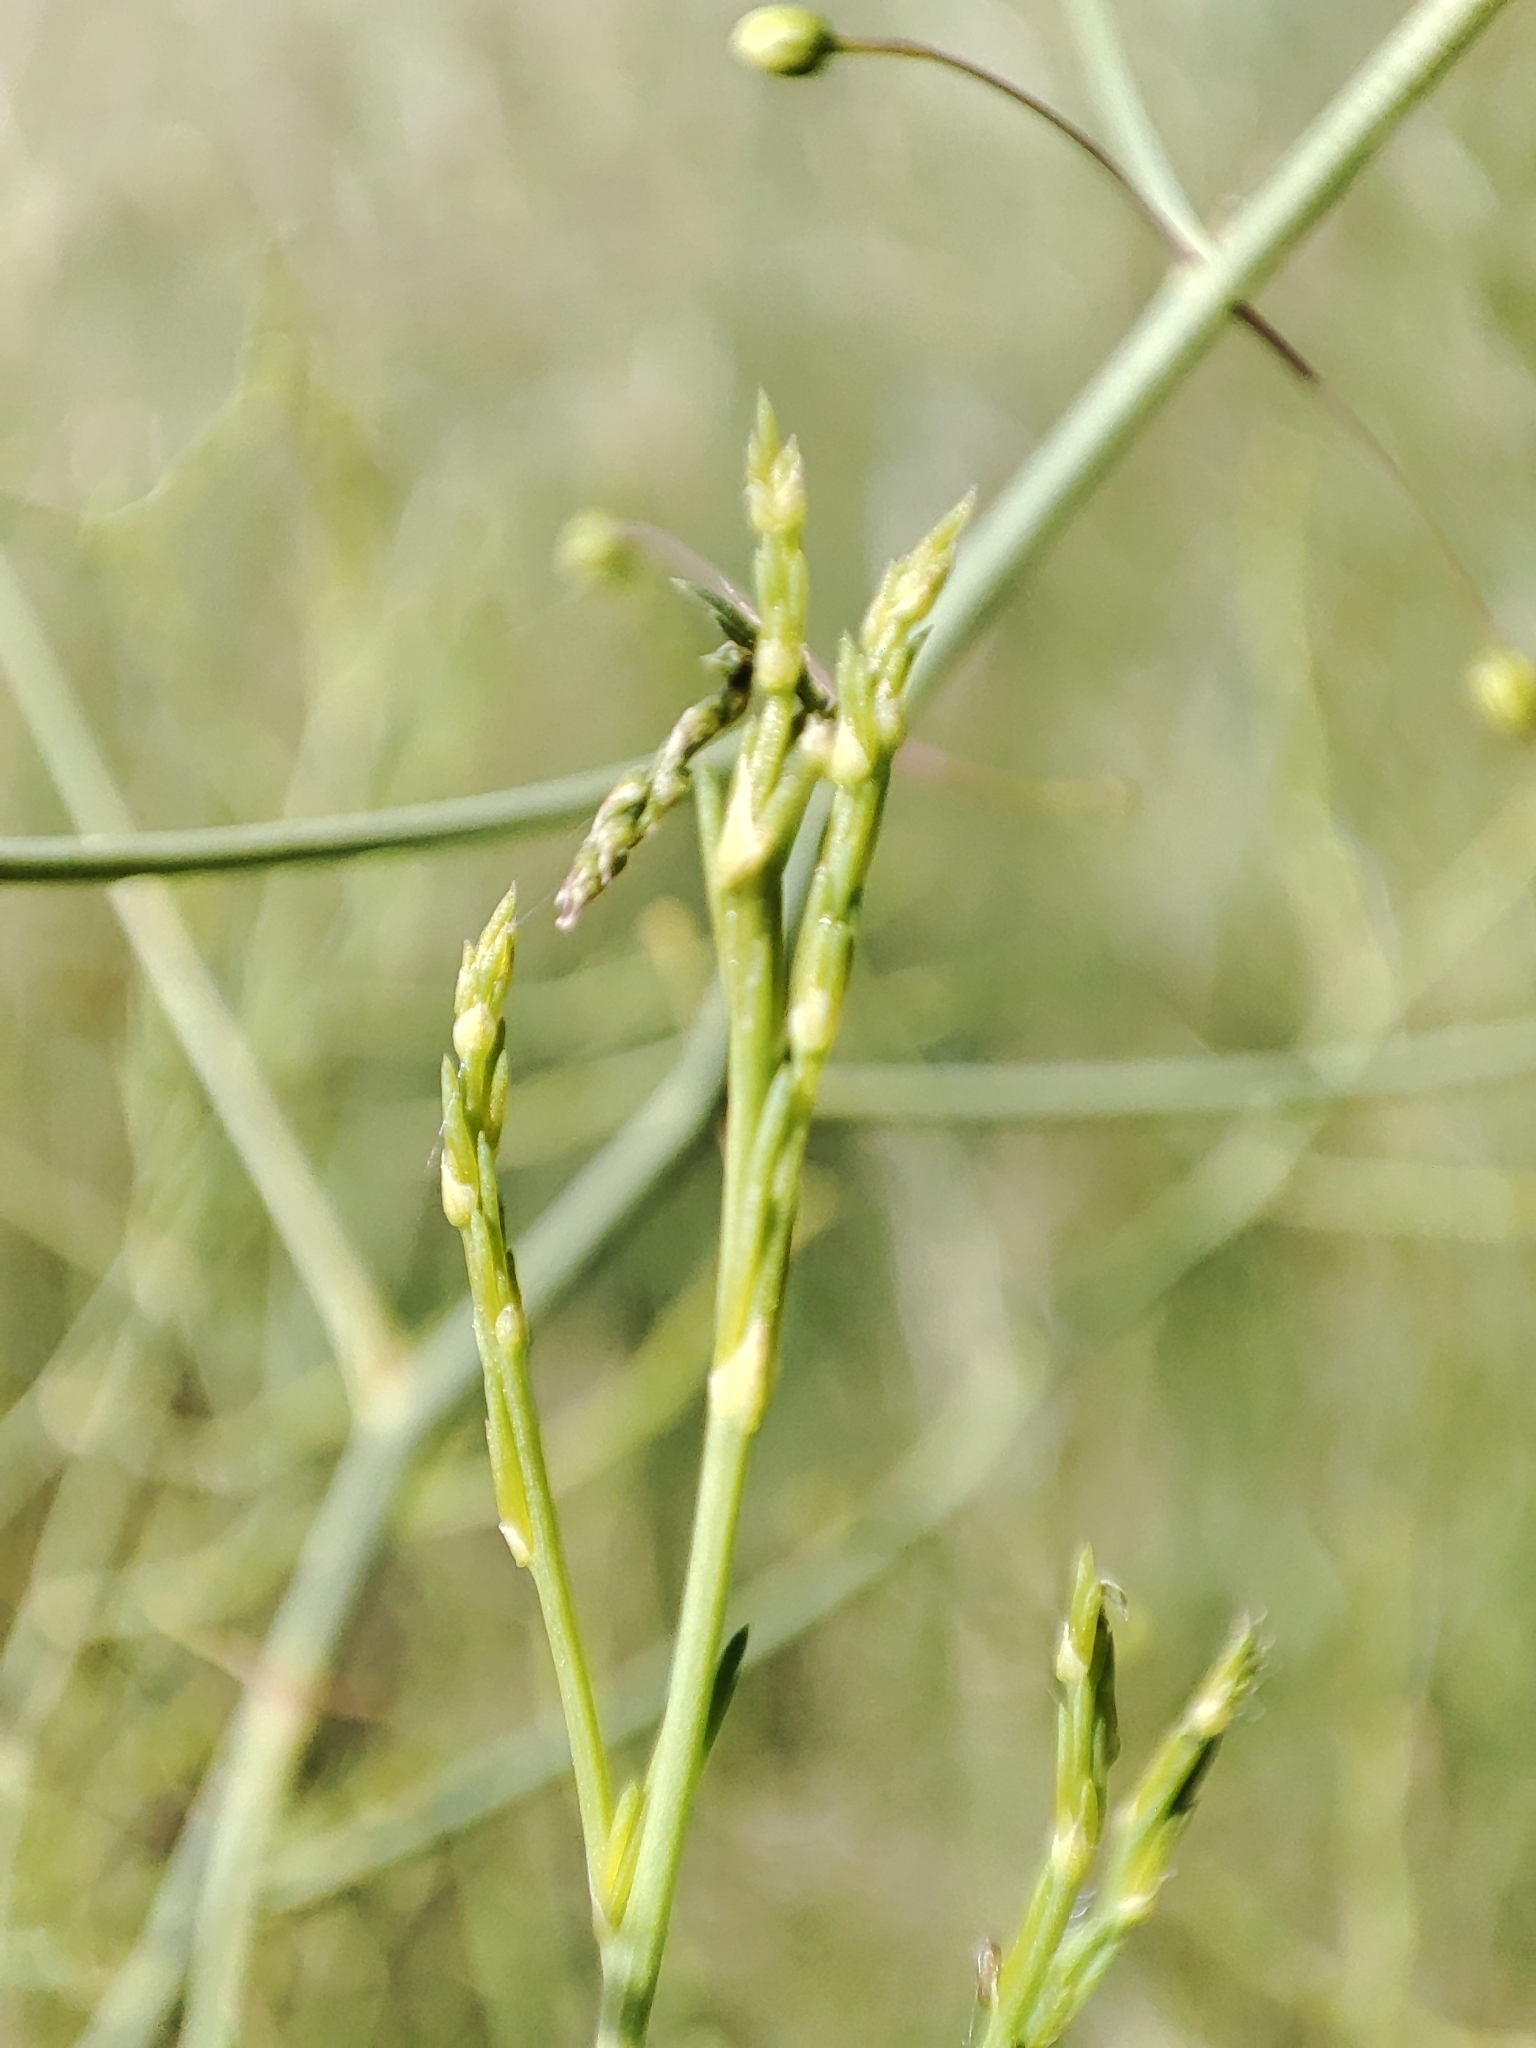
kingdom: Plantae
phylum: Tracheophyta
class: Liliopsida
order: Asparagales
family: Asparagaceae
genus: Asparagus
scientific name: Asparagus officinalis
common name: Garden asparagus
